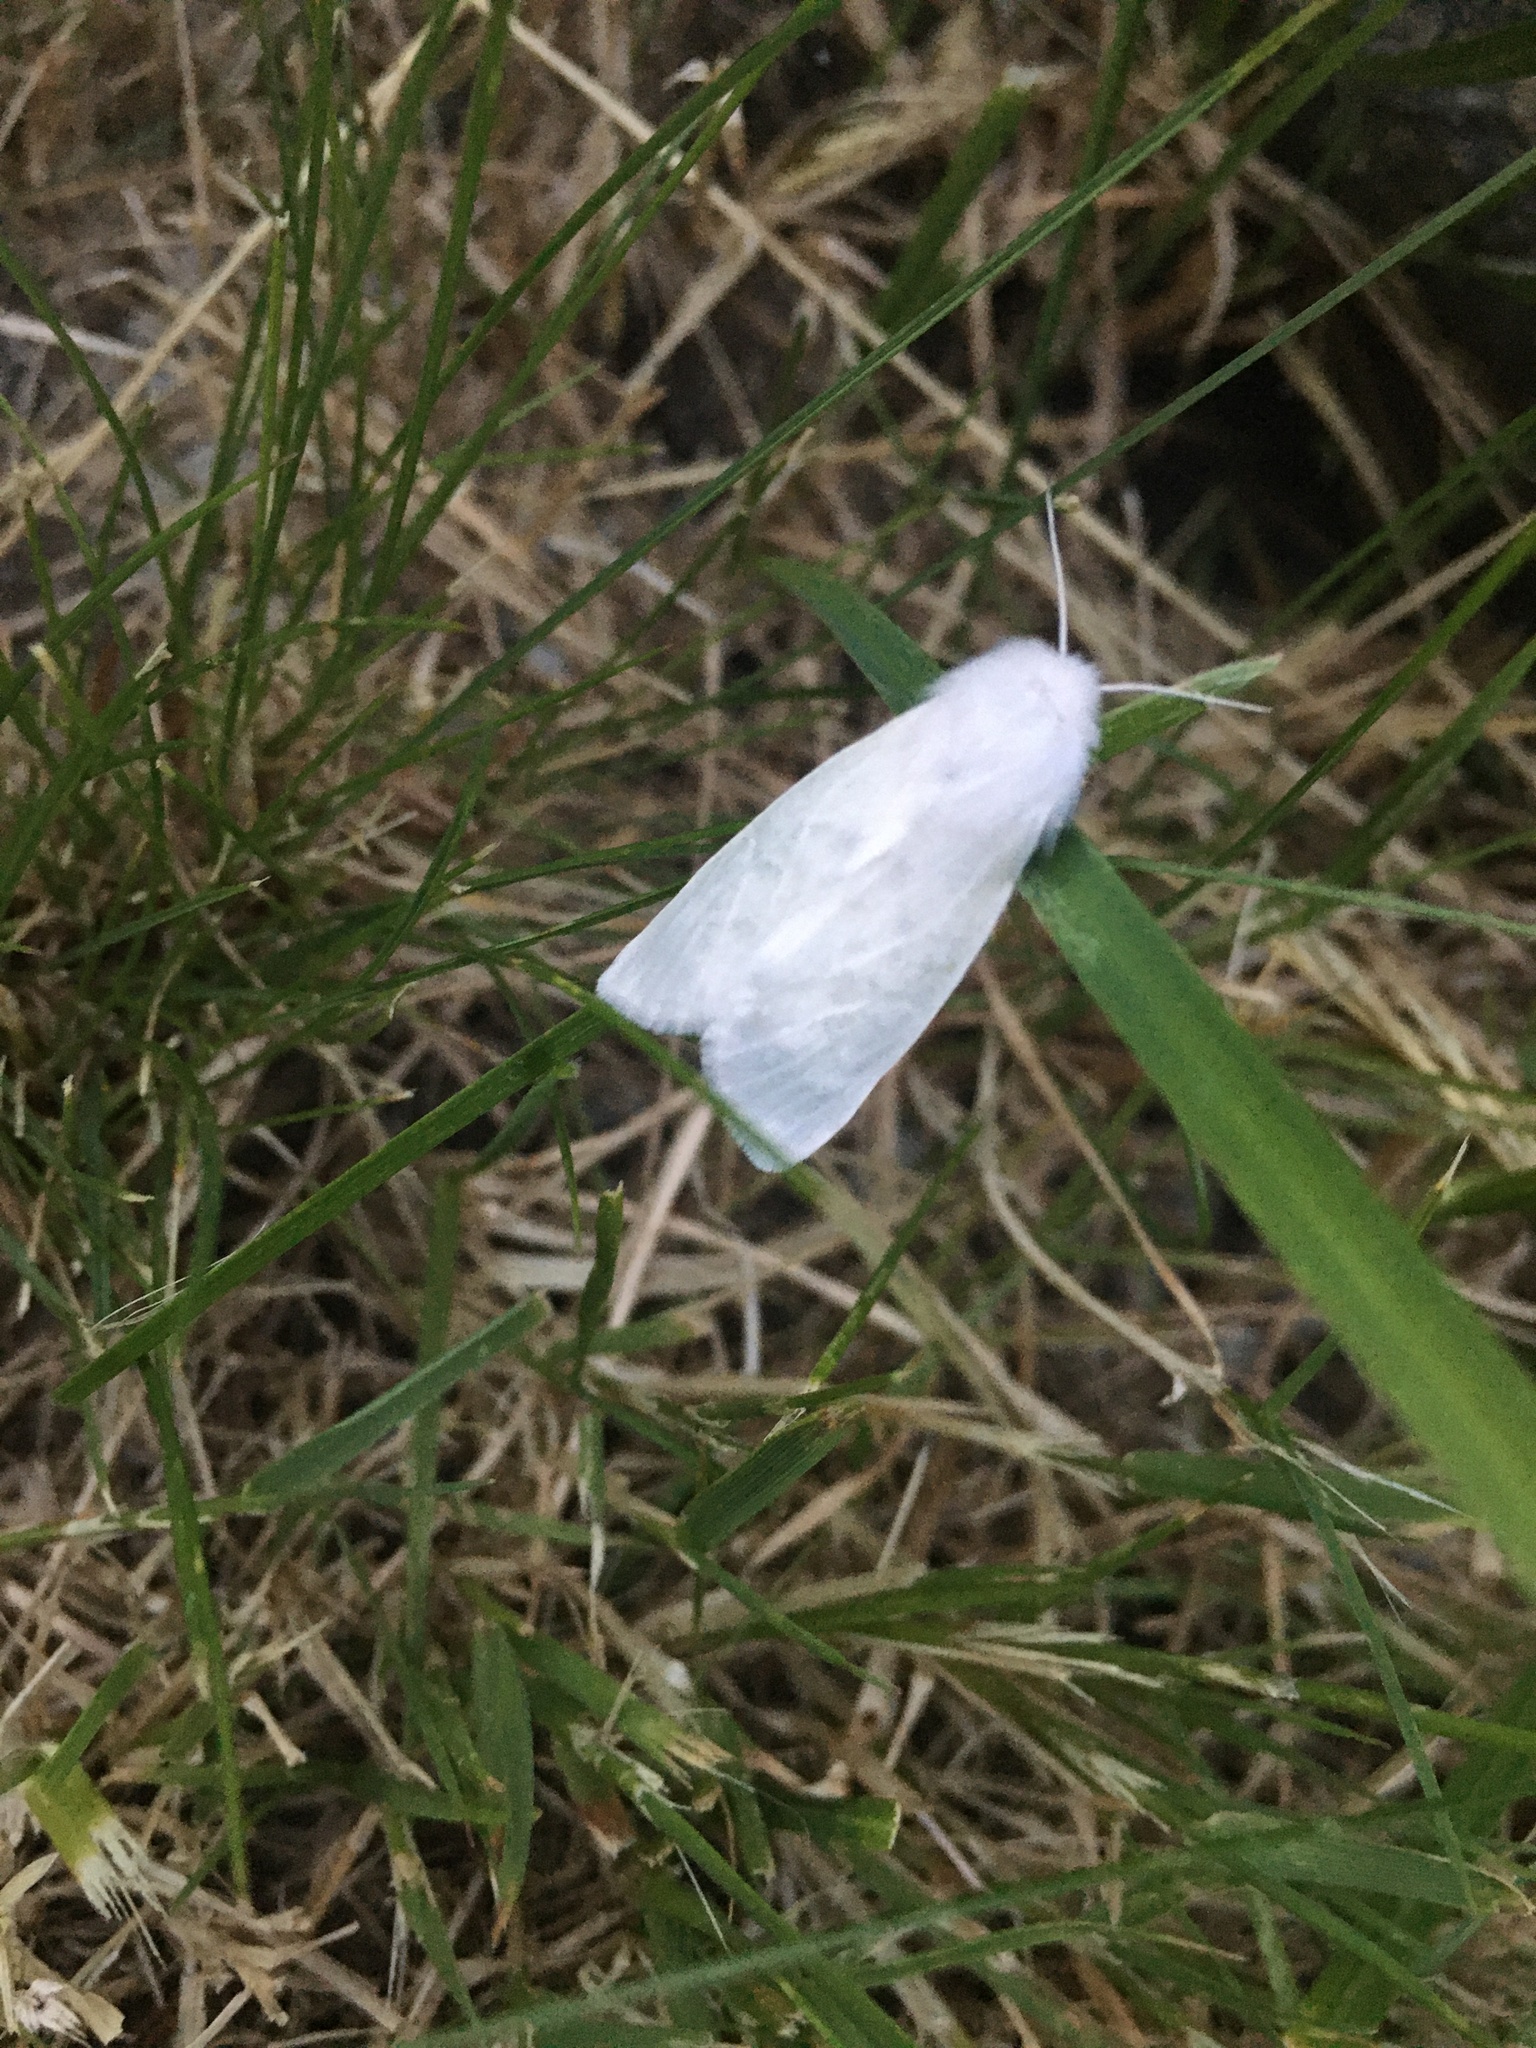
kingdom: Animalia
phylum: Arthropoda
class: Insecta
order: Lepidoptera
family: Erebidae
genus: Hyphantria
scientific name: Hyphantria cunea
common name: American white moth
